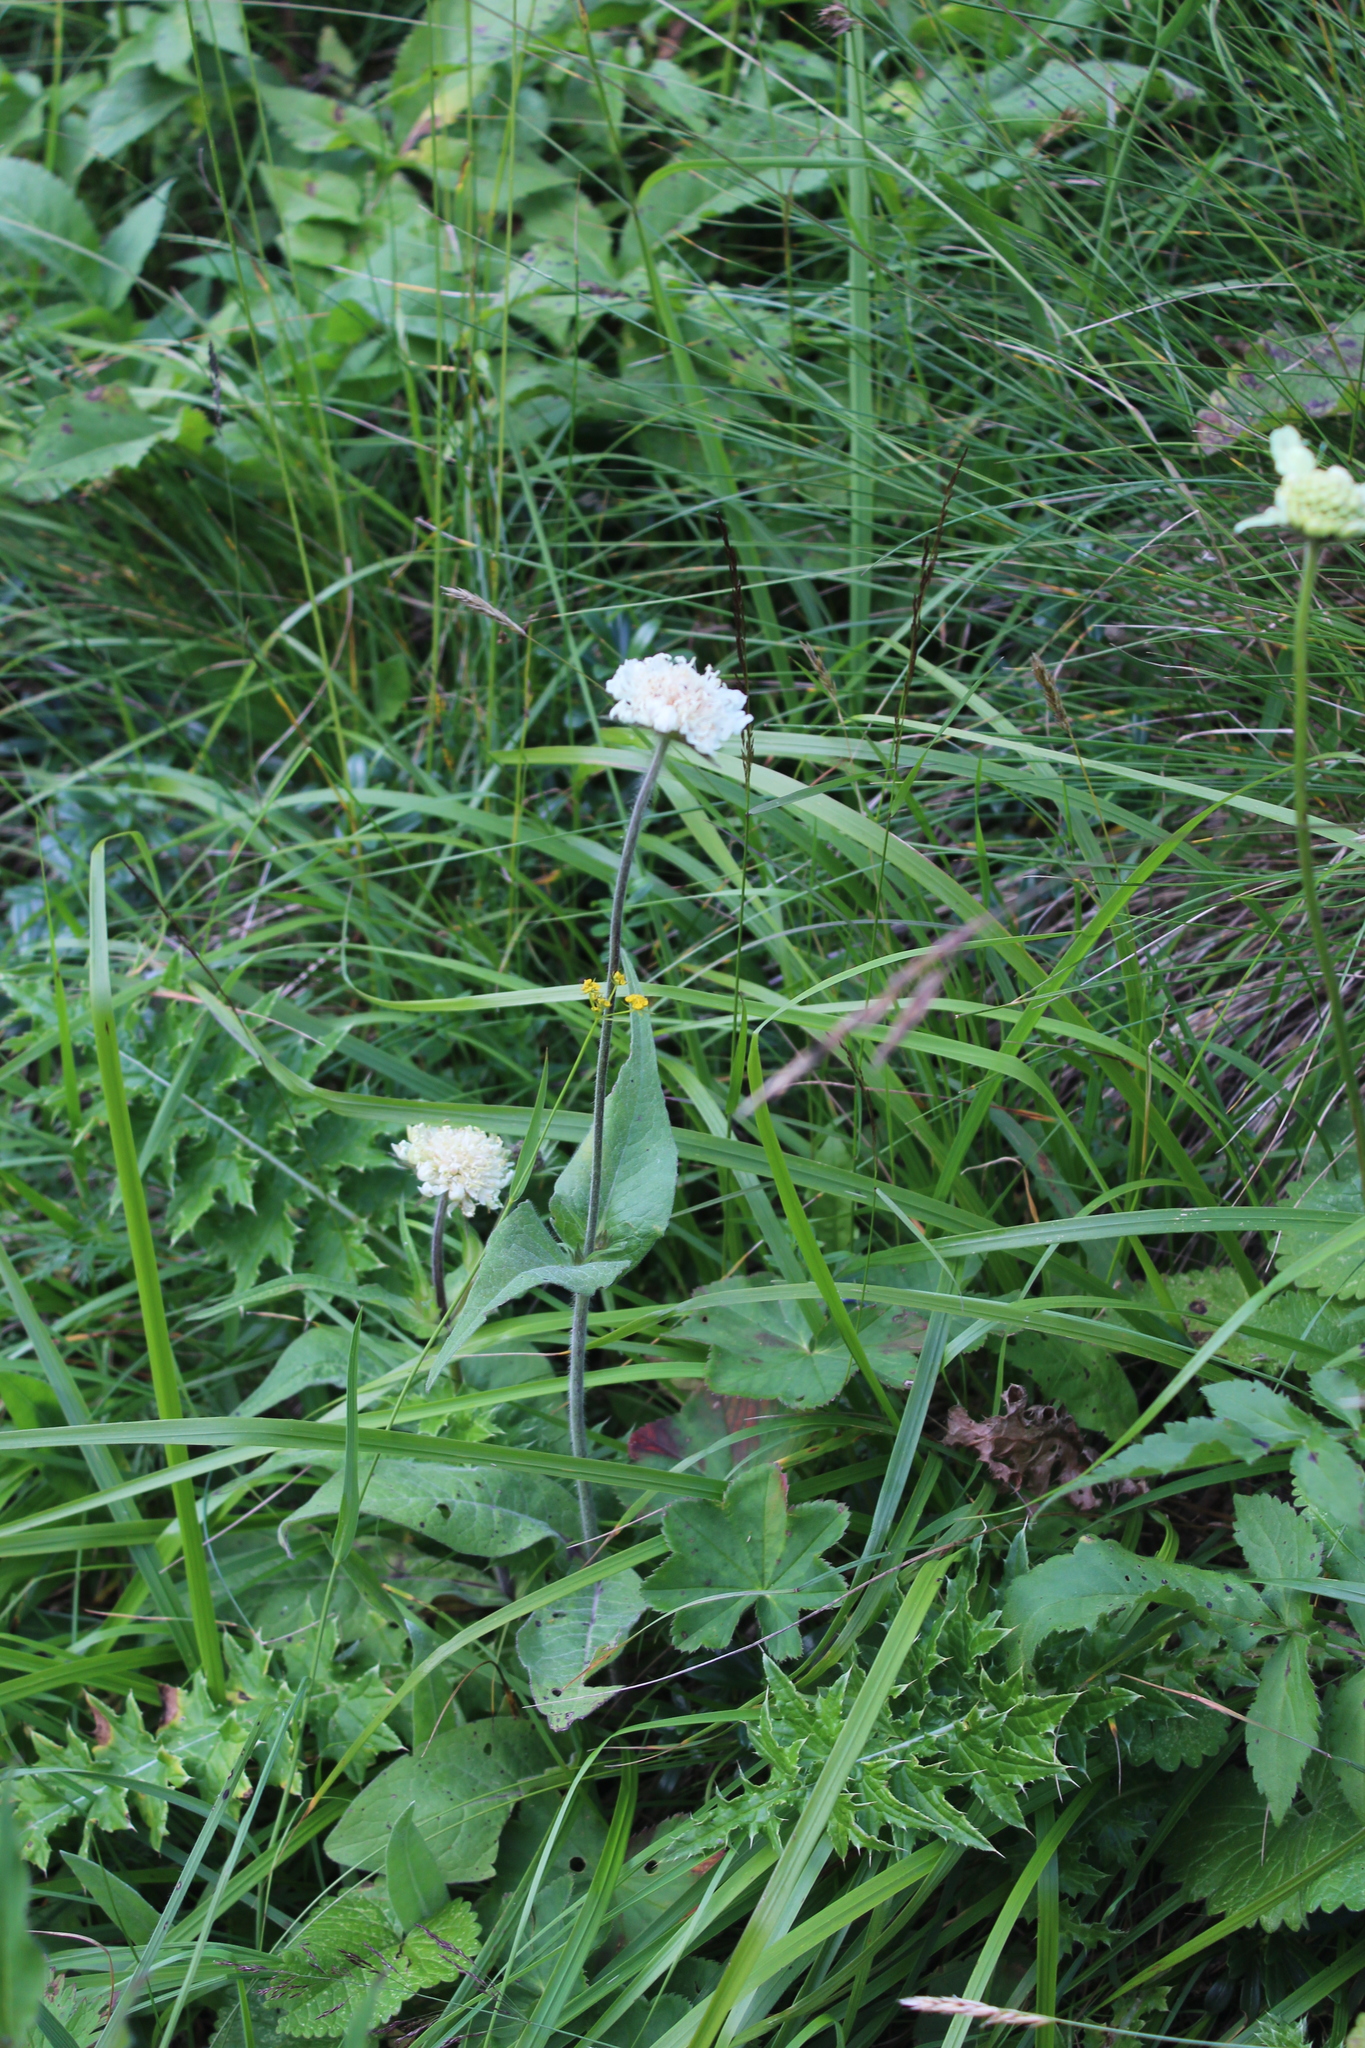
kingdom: Plantae
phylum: Tracheophyta
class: Magnoliopsida
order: Dipsacales
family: Caprifoliaceae
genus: Knautia
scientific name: Knautia involucrata
